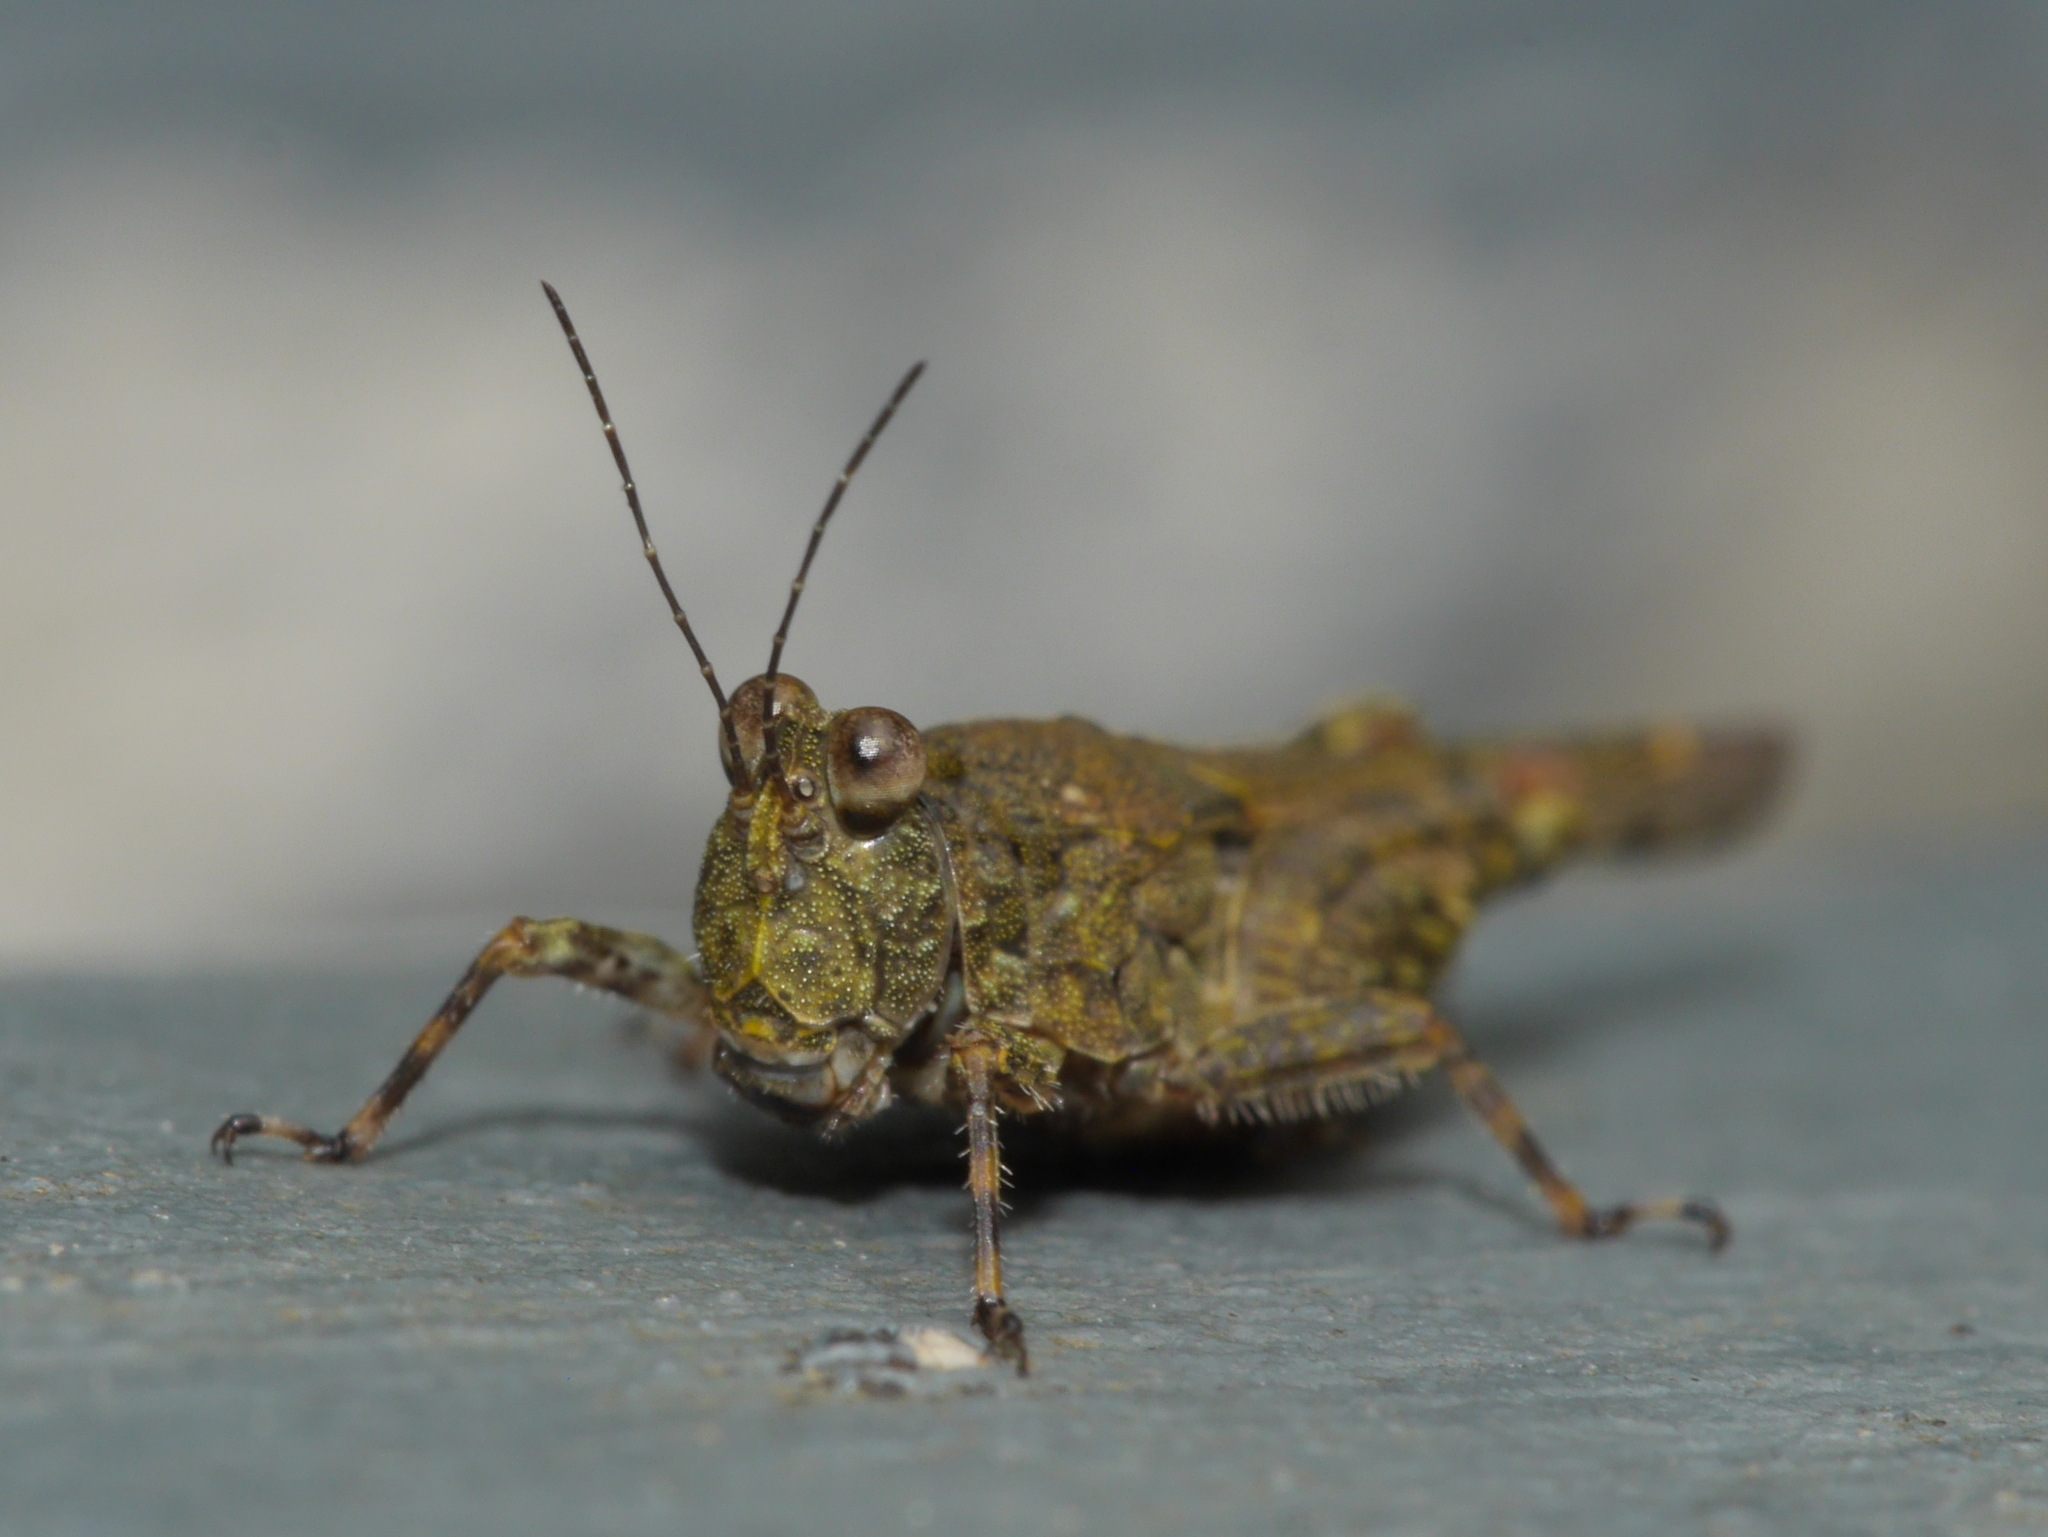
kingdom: Animalia
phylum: Arthropoda
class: Insecta
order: Orthoptera
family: Tetrigidae
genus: Euparatettix
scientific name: Euparatettix personatus
